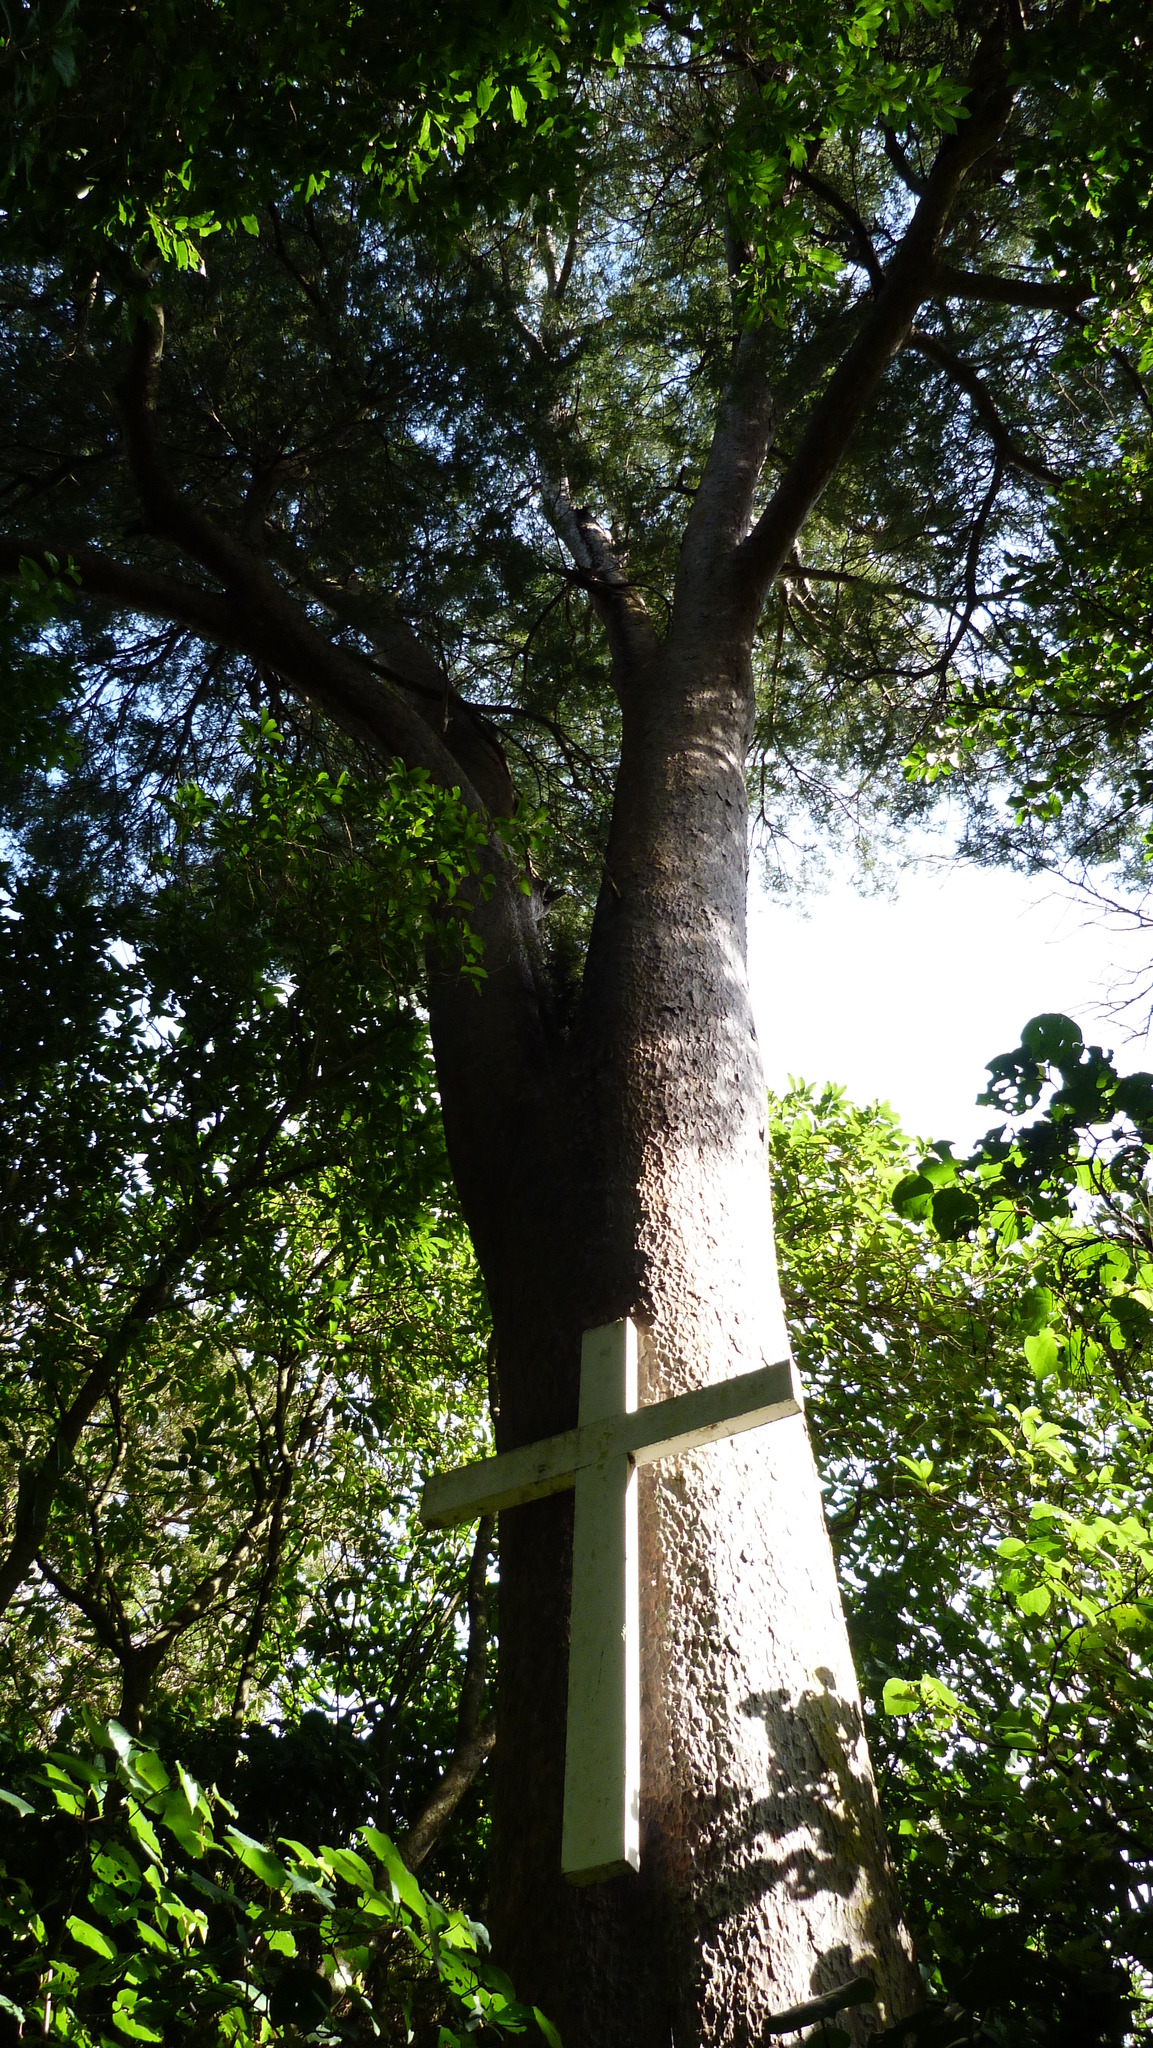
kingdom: Plantae
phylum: Tracheophyta
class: Pinopsida
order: Pinales
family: Podocarpaceae
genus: Prumnopitys
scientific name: Prumnopitys taxifolia
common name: Matai
